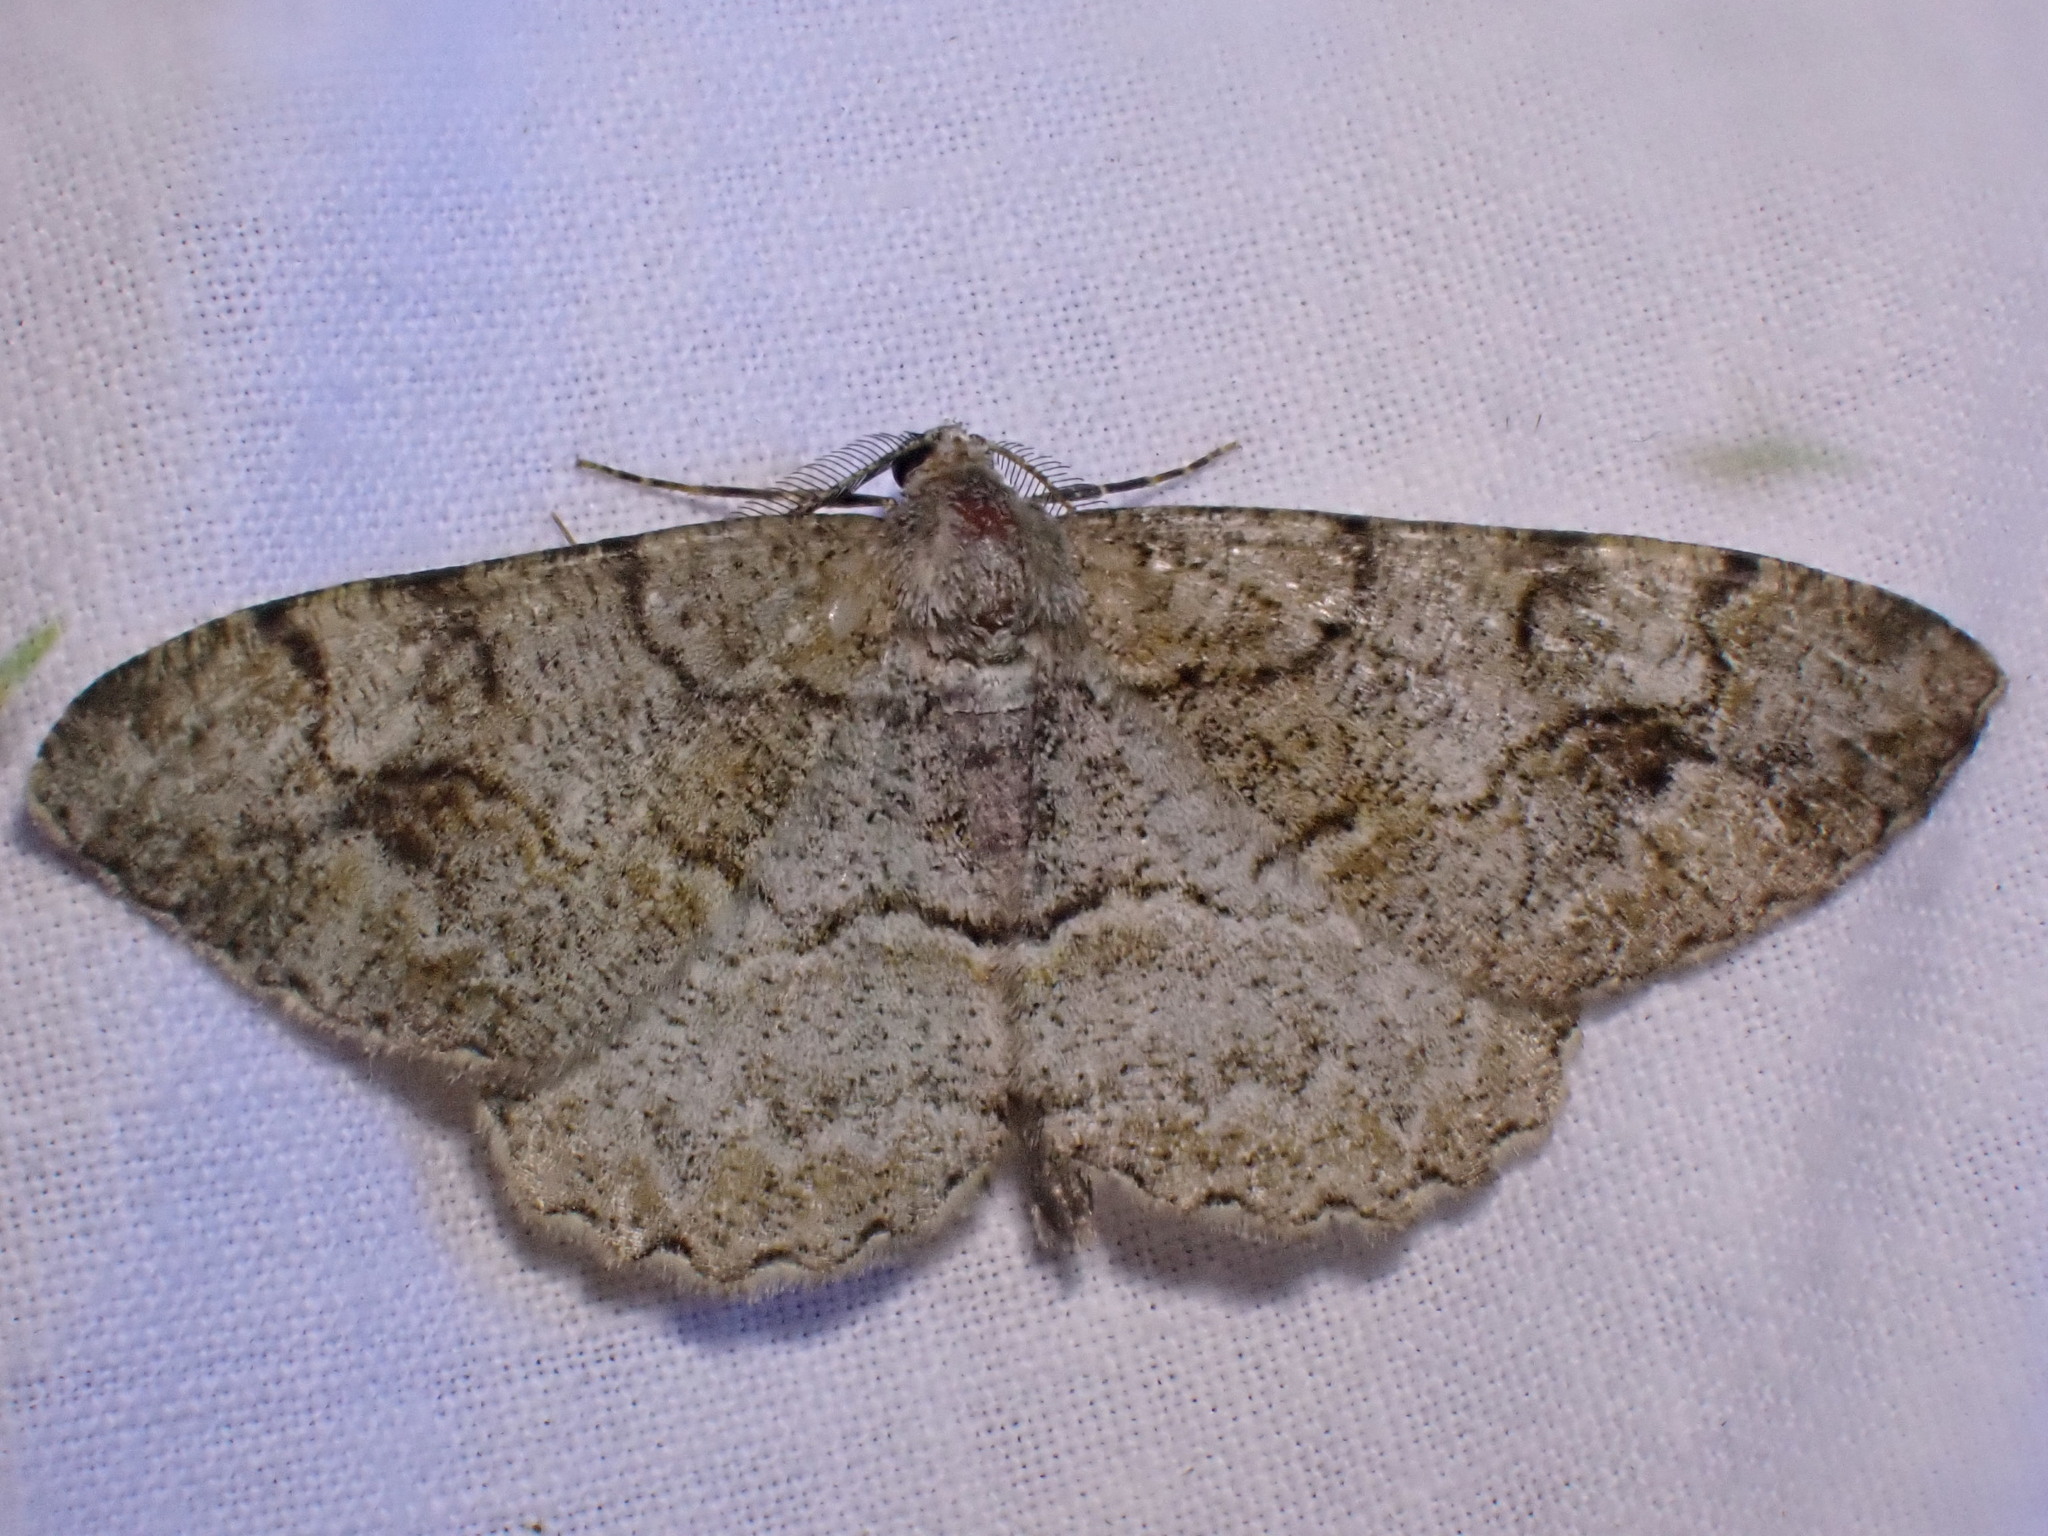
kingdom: Animalia
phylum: Arthropoda
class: Insecta
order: Lepidoptera
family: Geometridae
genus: Alcis
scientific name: Alcis repandata
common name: Mottled beauty
